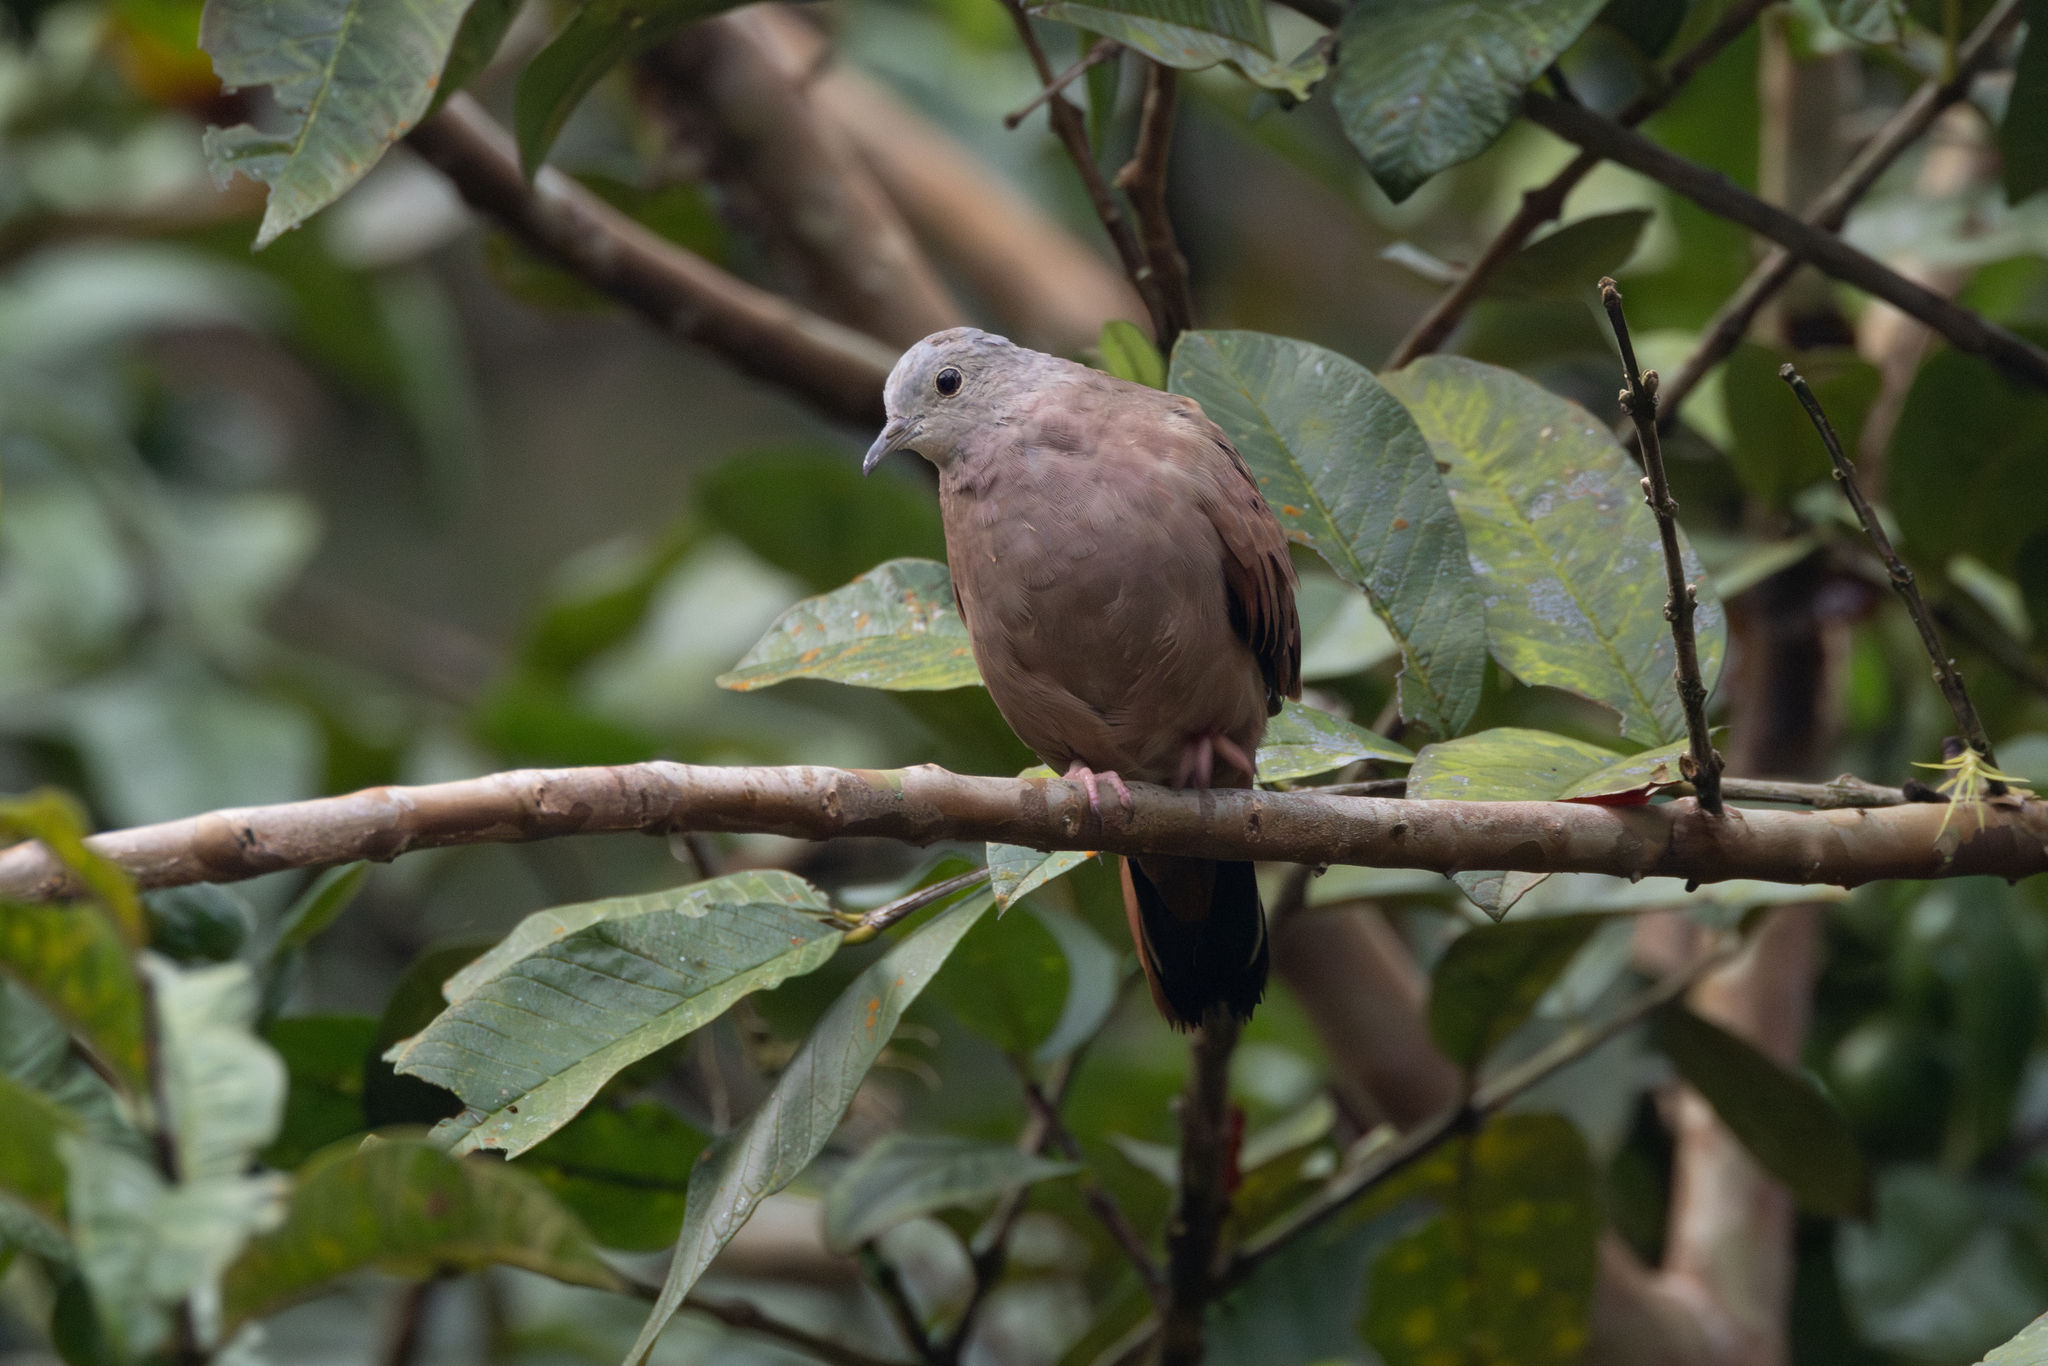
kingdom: Animalia
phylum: Chordata
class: Aves
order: Columbiformes
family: Columbidae
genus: Columbina
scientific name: Columbina talpacoti
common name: Ruddy ground dove
